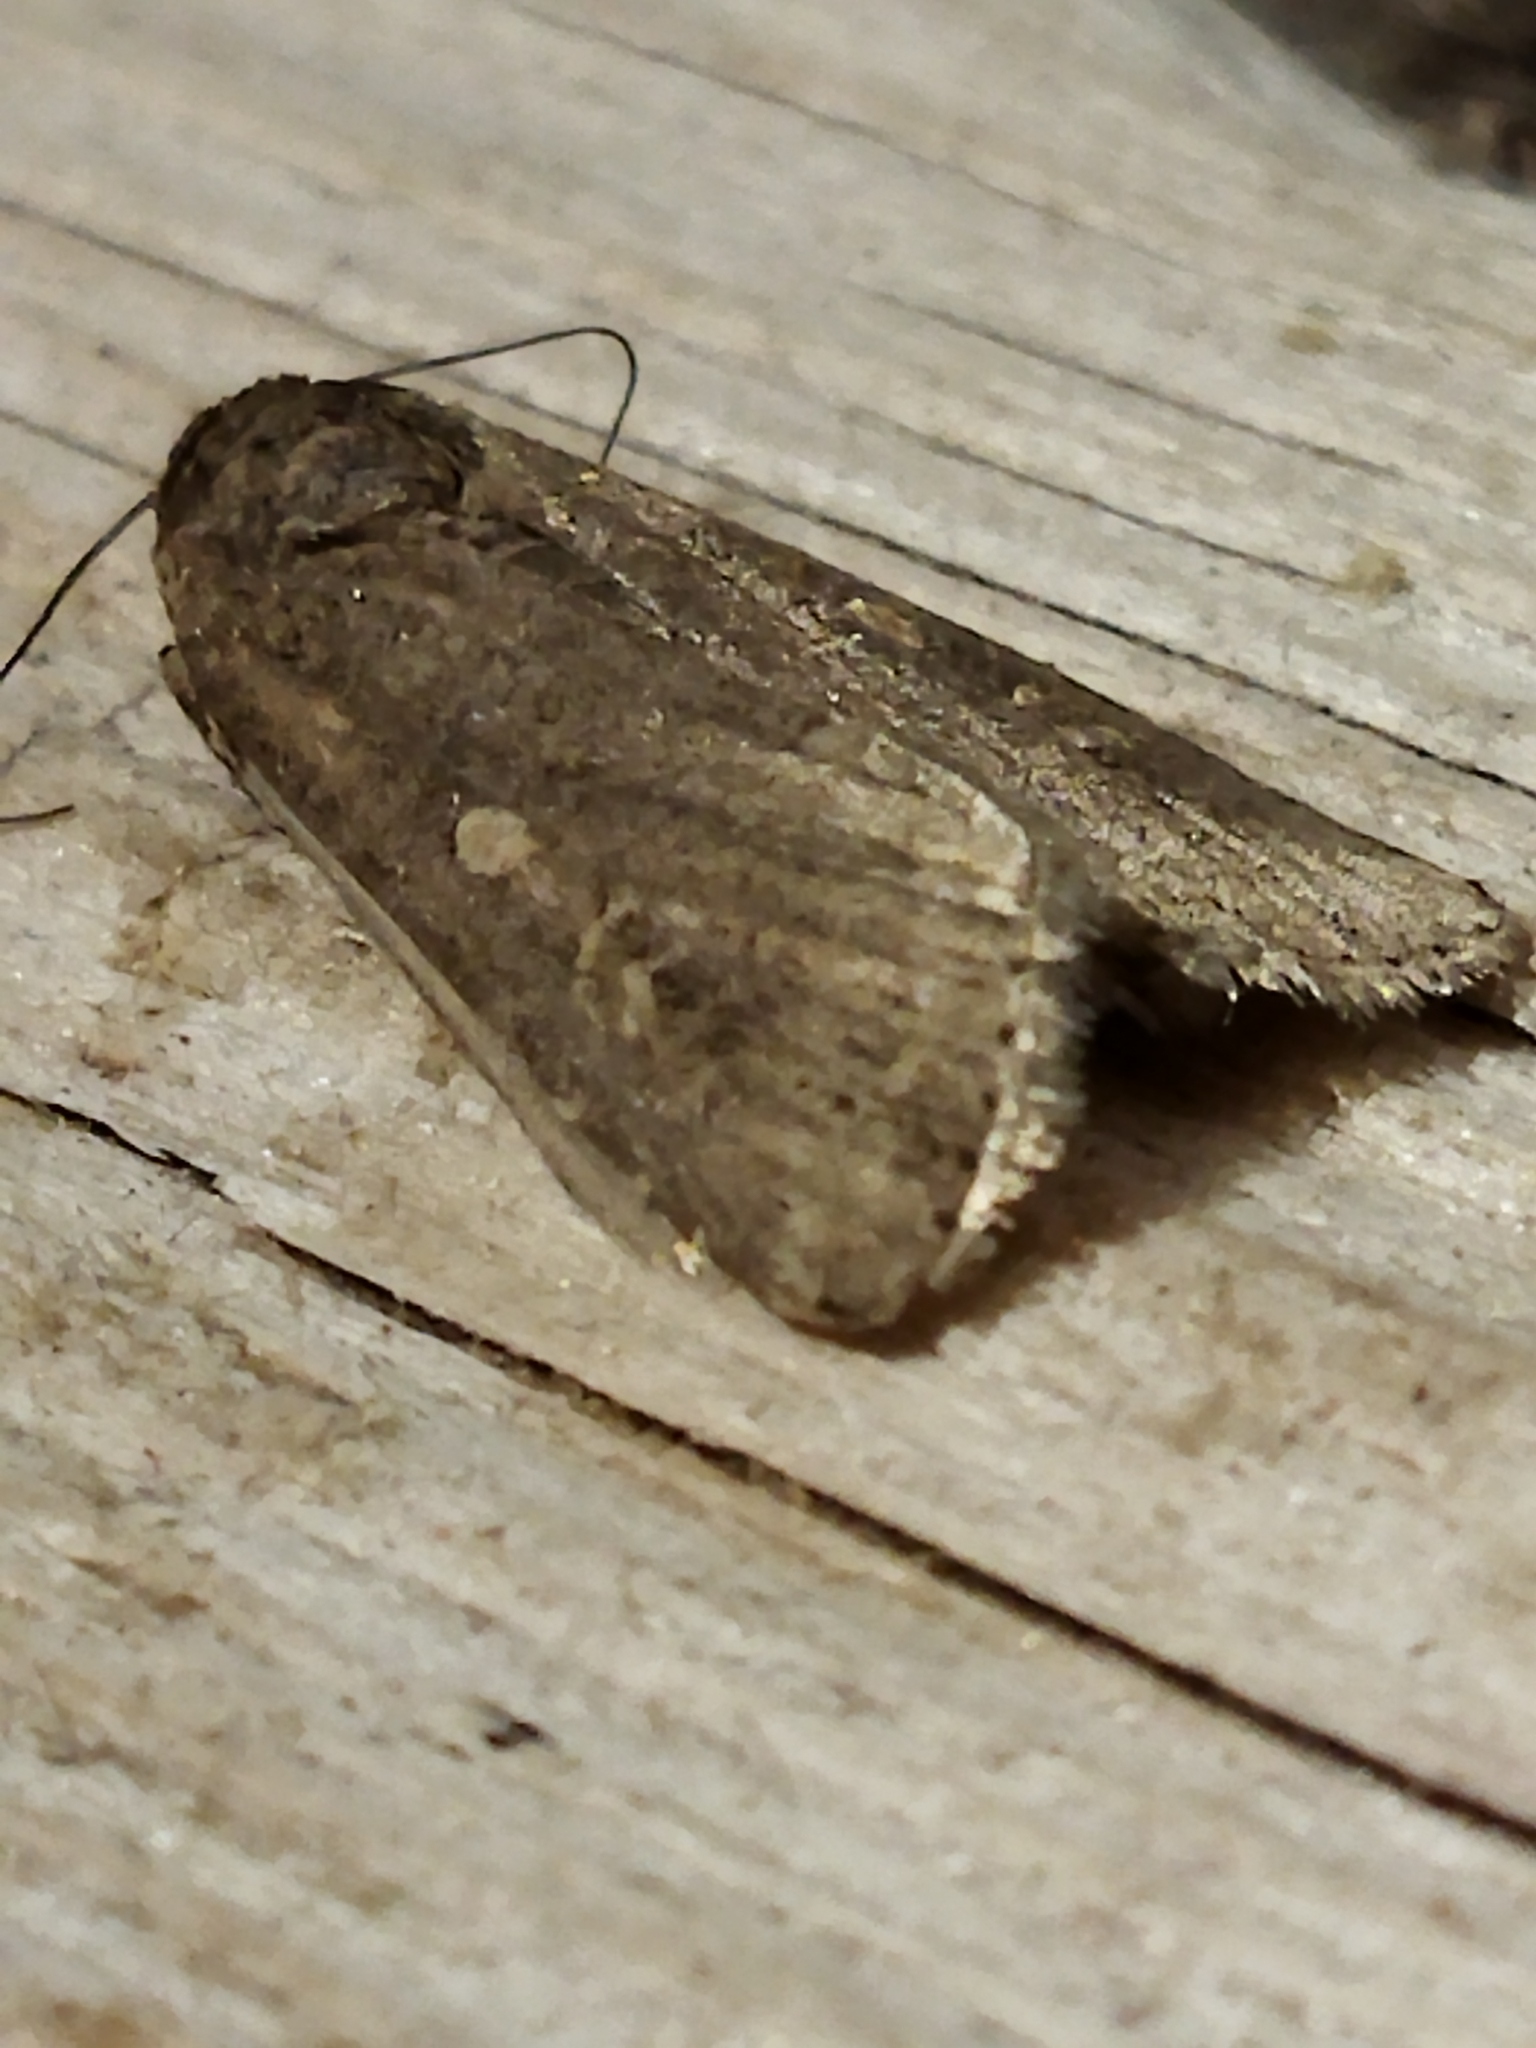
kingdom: Animalia
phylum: Arthropoda
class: Insecta
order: Lepidoptera
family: Noctuidae
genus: Spodoptera
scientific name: Spodoptera exigua
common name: Beet armyworm
